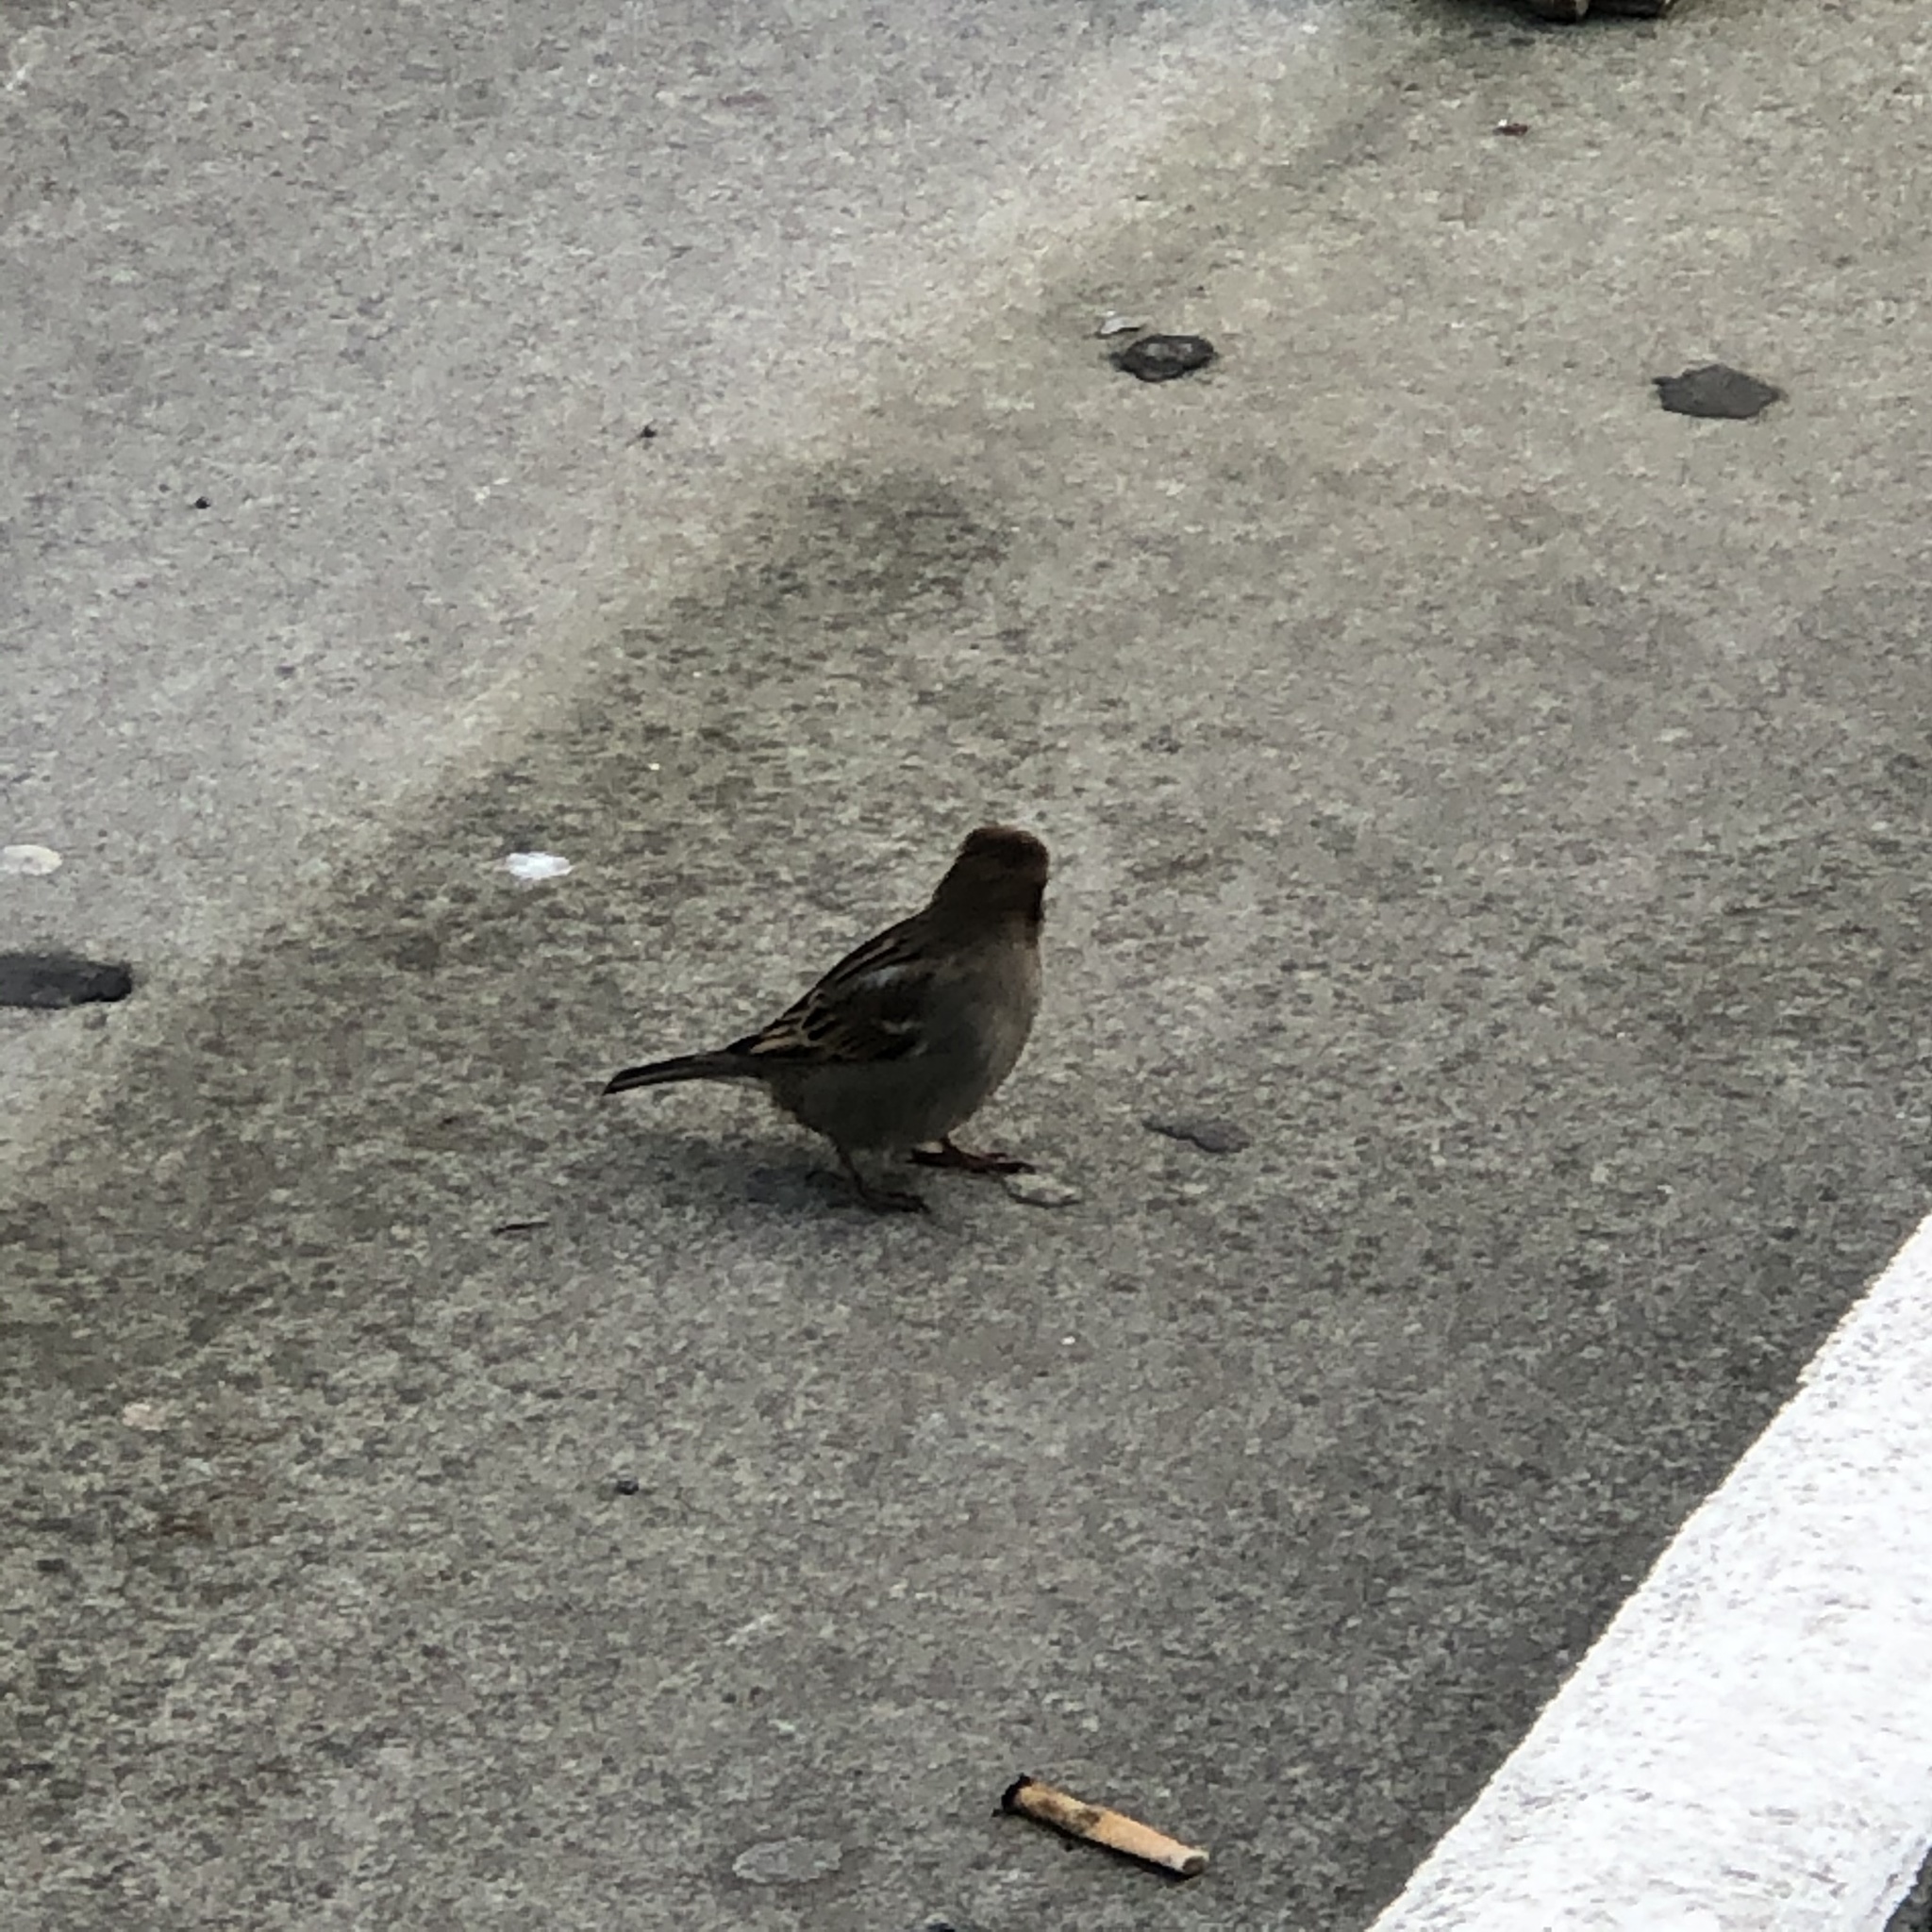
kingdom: Animalia
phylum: Chordata
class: Aves
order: Passeriformes
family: Passeridae
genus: Passer
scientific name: Passer domesticus
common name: House sparrow
